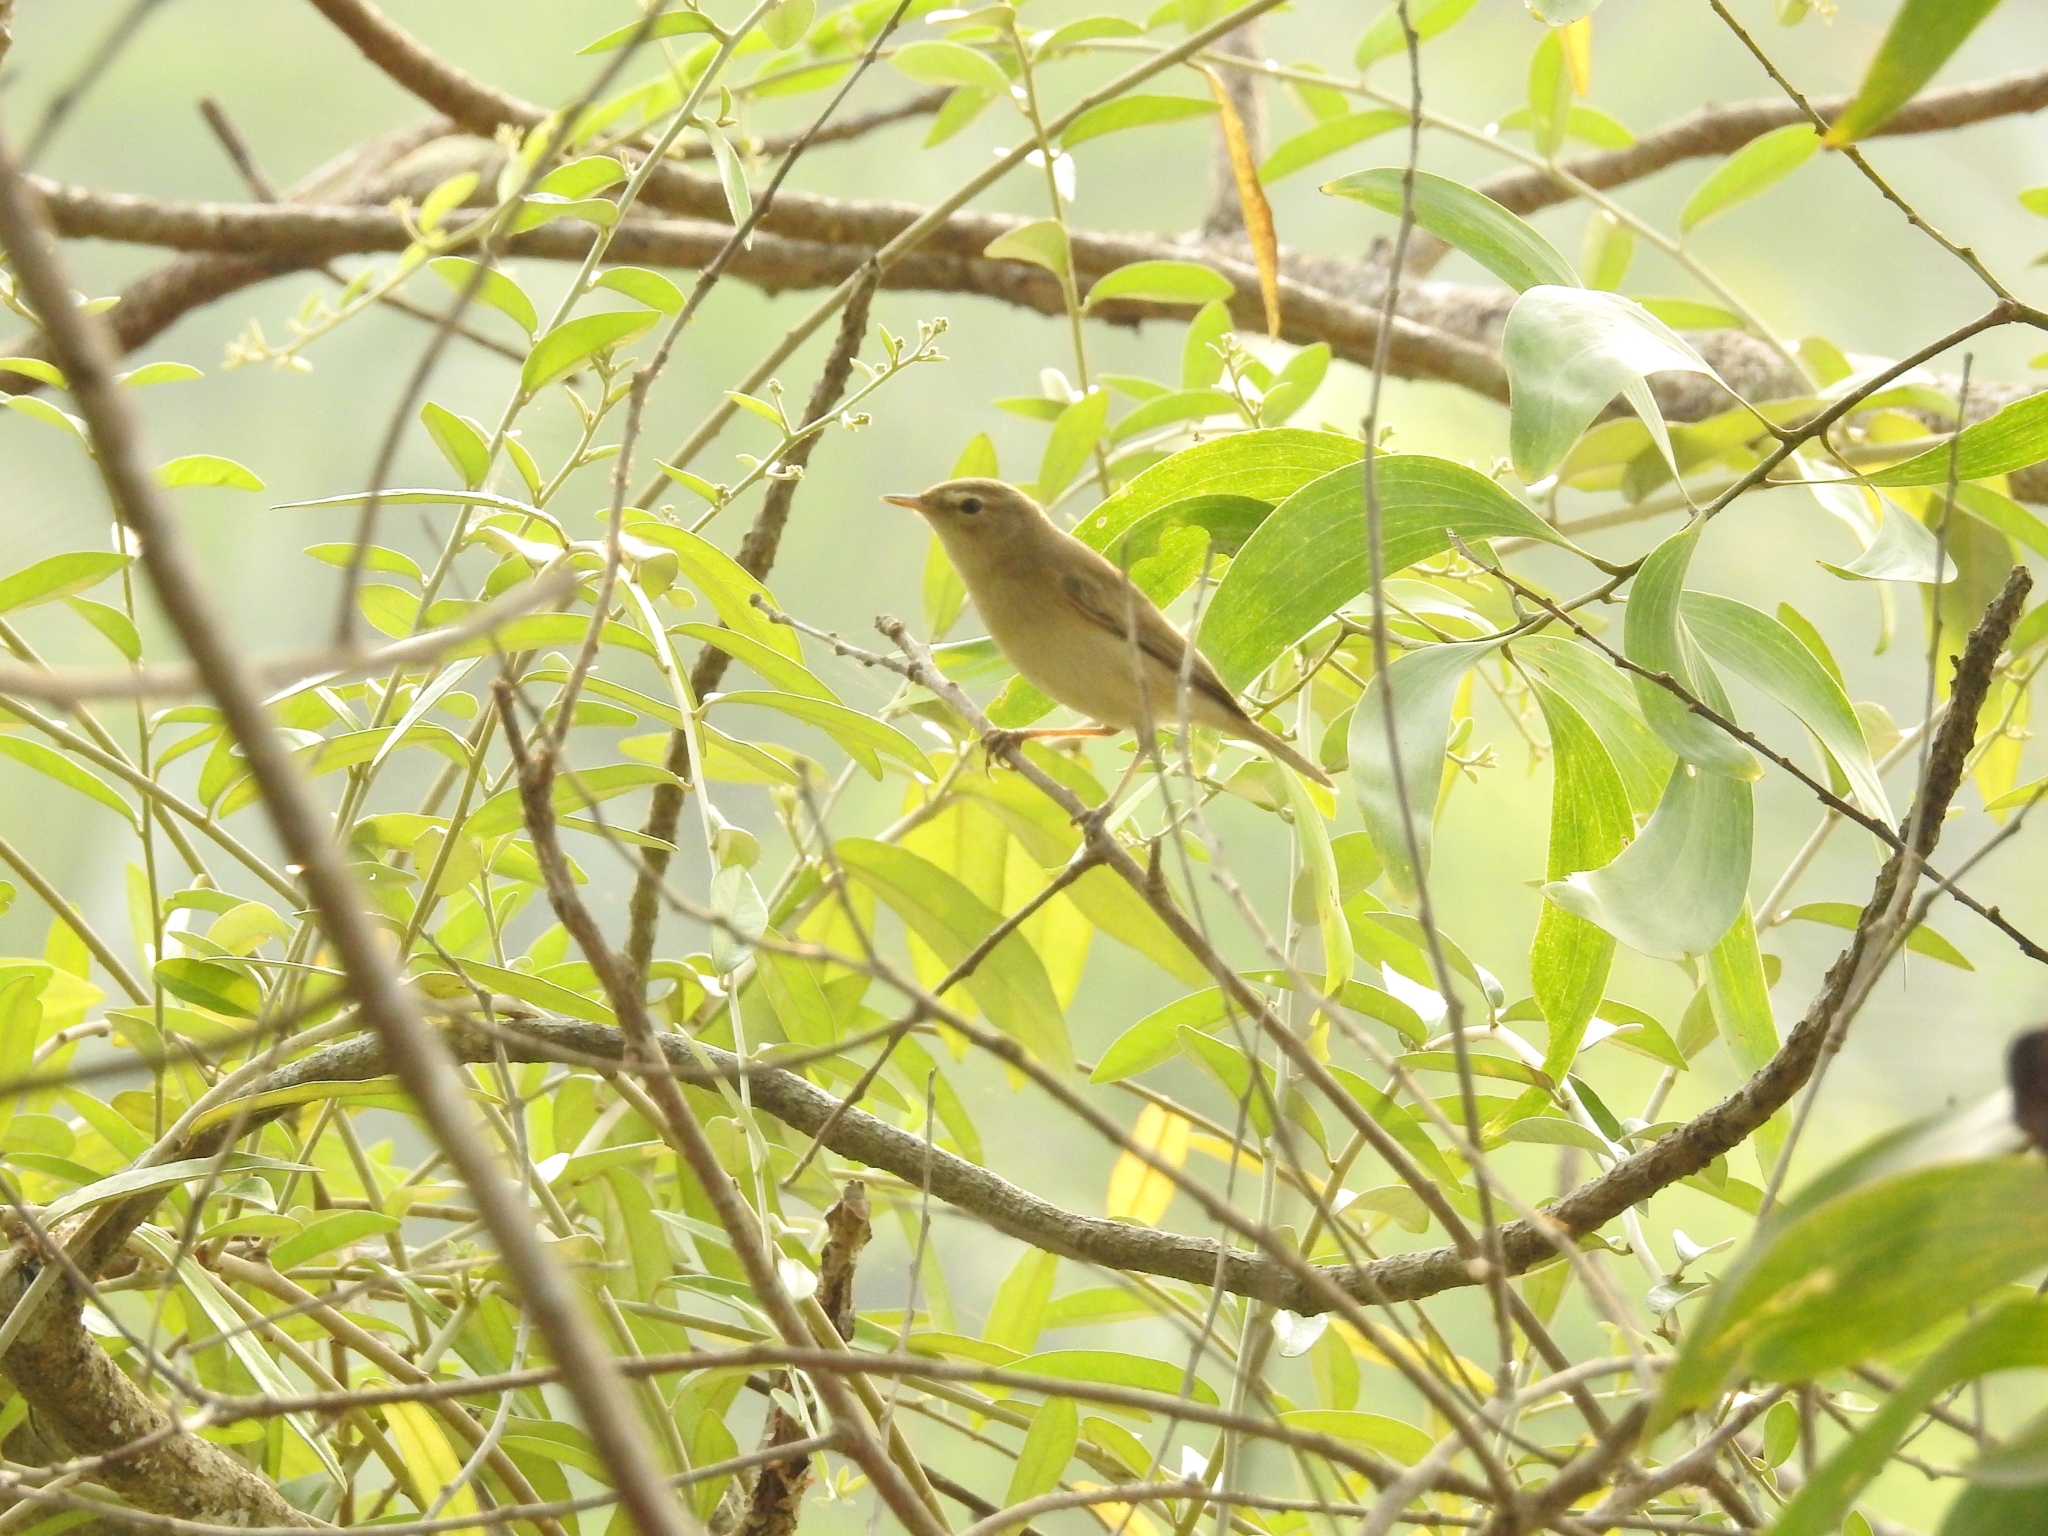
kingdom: Animalia
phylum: Chordata
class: Aves
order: Passeriformes
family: Acrocephalidae
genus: Iduna
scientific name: Iduna rama
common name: Sykes's warbler
